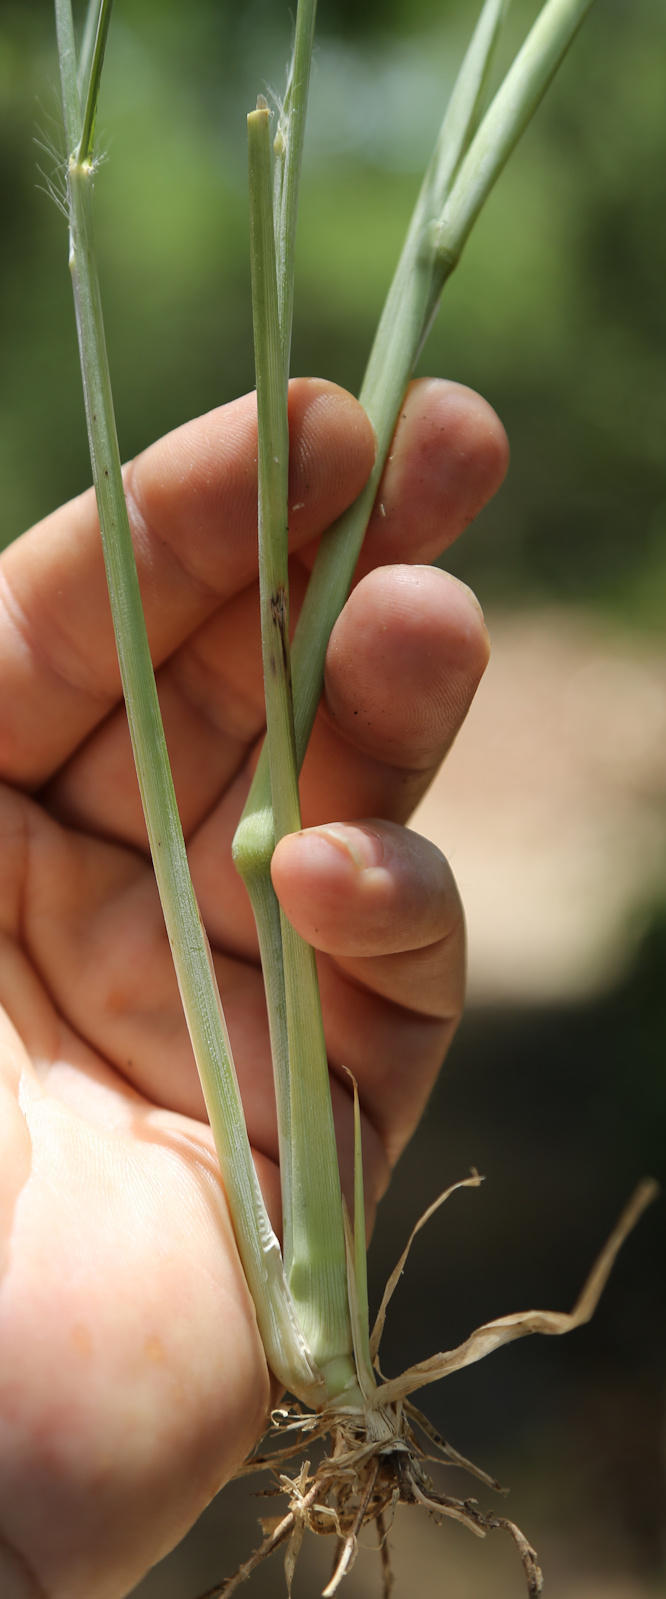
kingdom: Plantae
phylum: Tracheophyta
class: Liliopsida
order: Poales
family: Poaceae
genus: Megathyrsus
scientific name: Megathyrsus maximus
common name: Guineagrass
